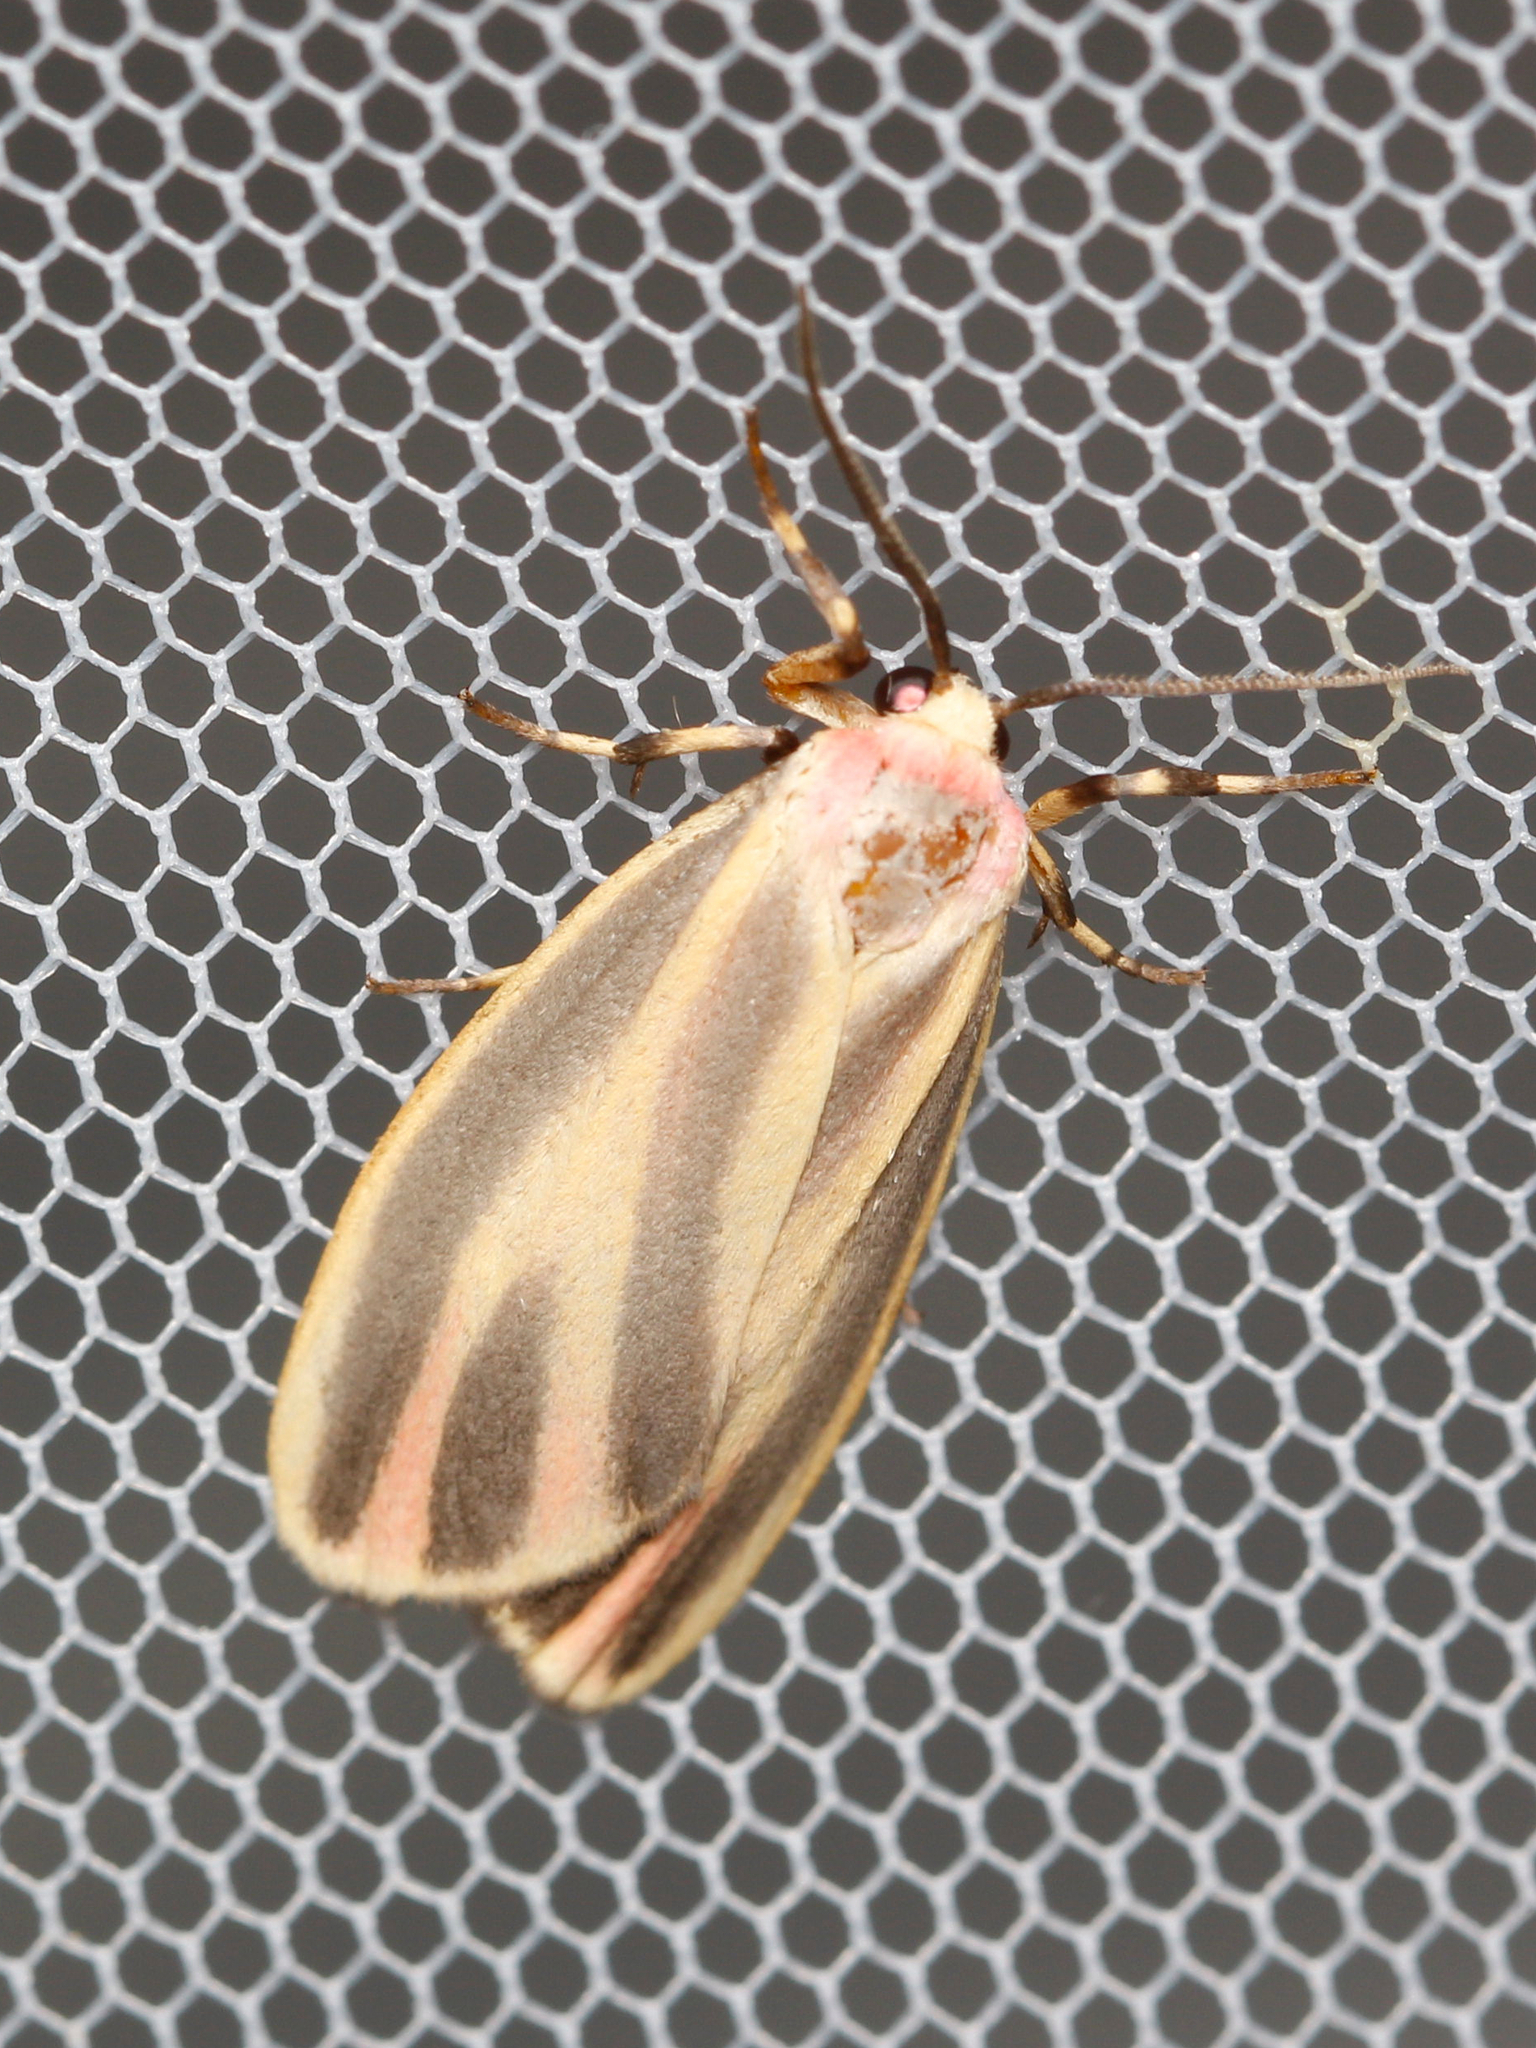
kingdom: Animalia
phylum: Arthropoda
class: Insecta
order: Lepidoptera
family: Erebidae
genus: Hypoprepia
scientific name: Hypoprepia fucosa
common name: Painted lichen moth
